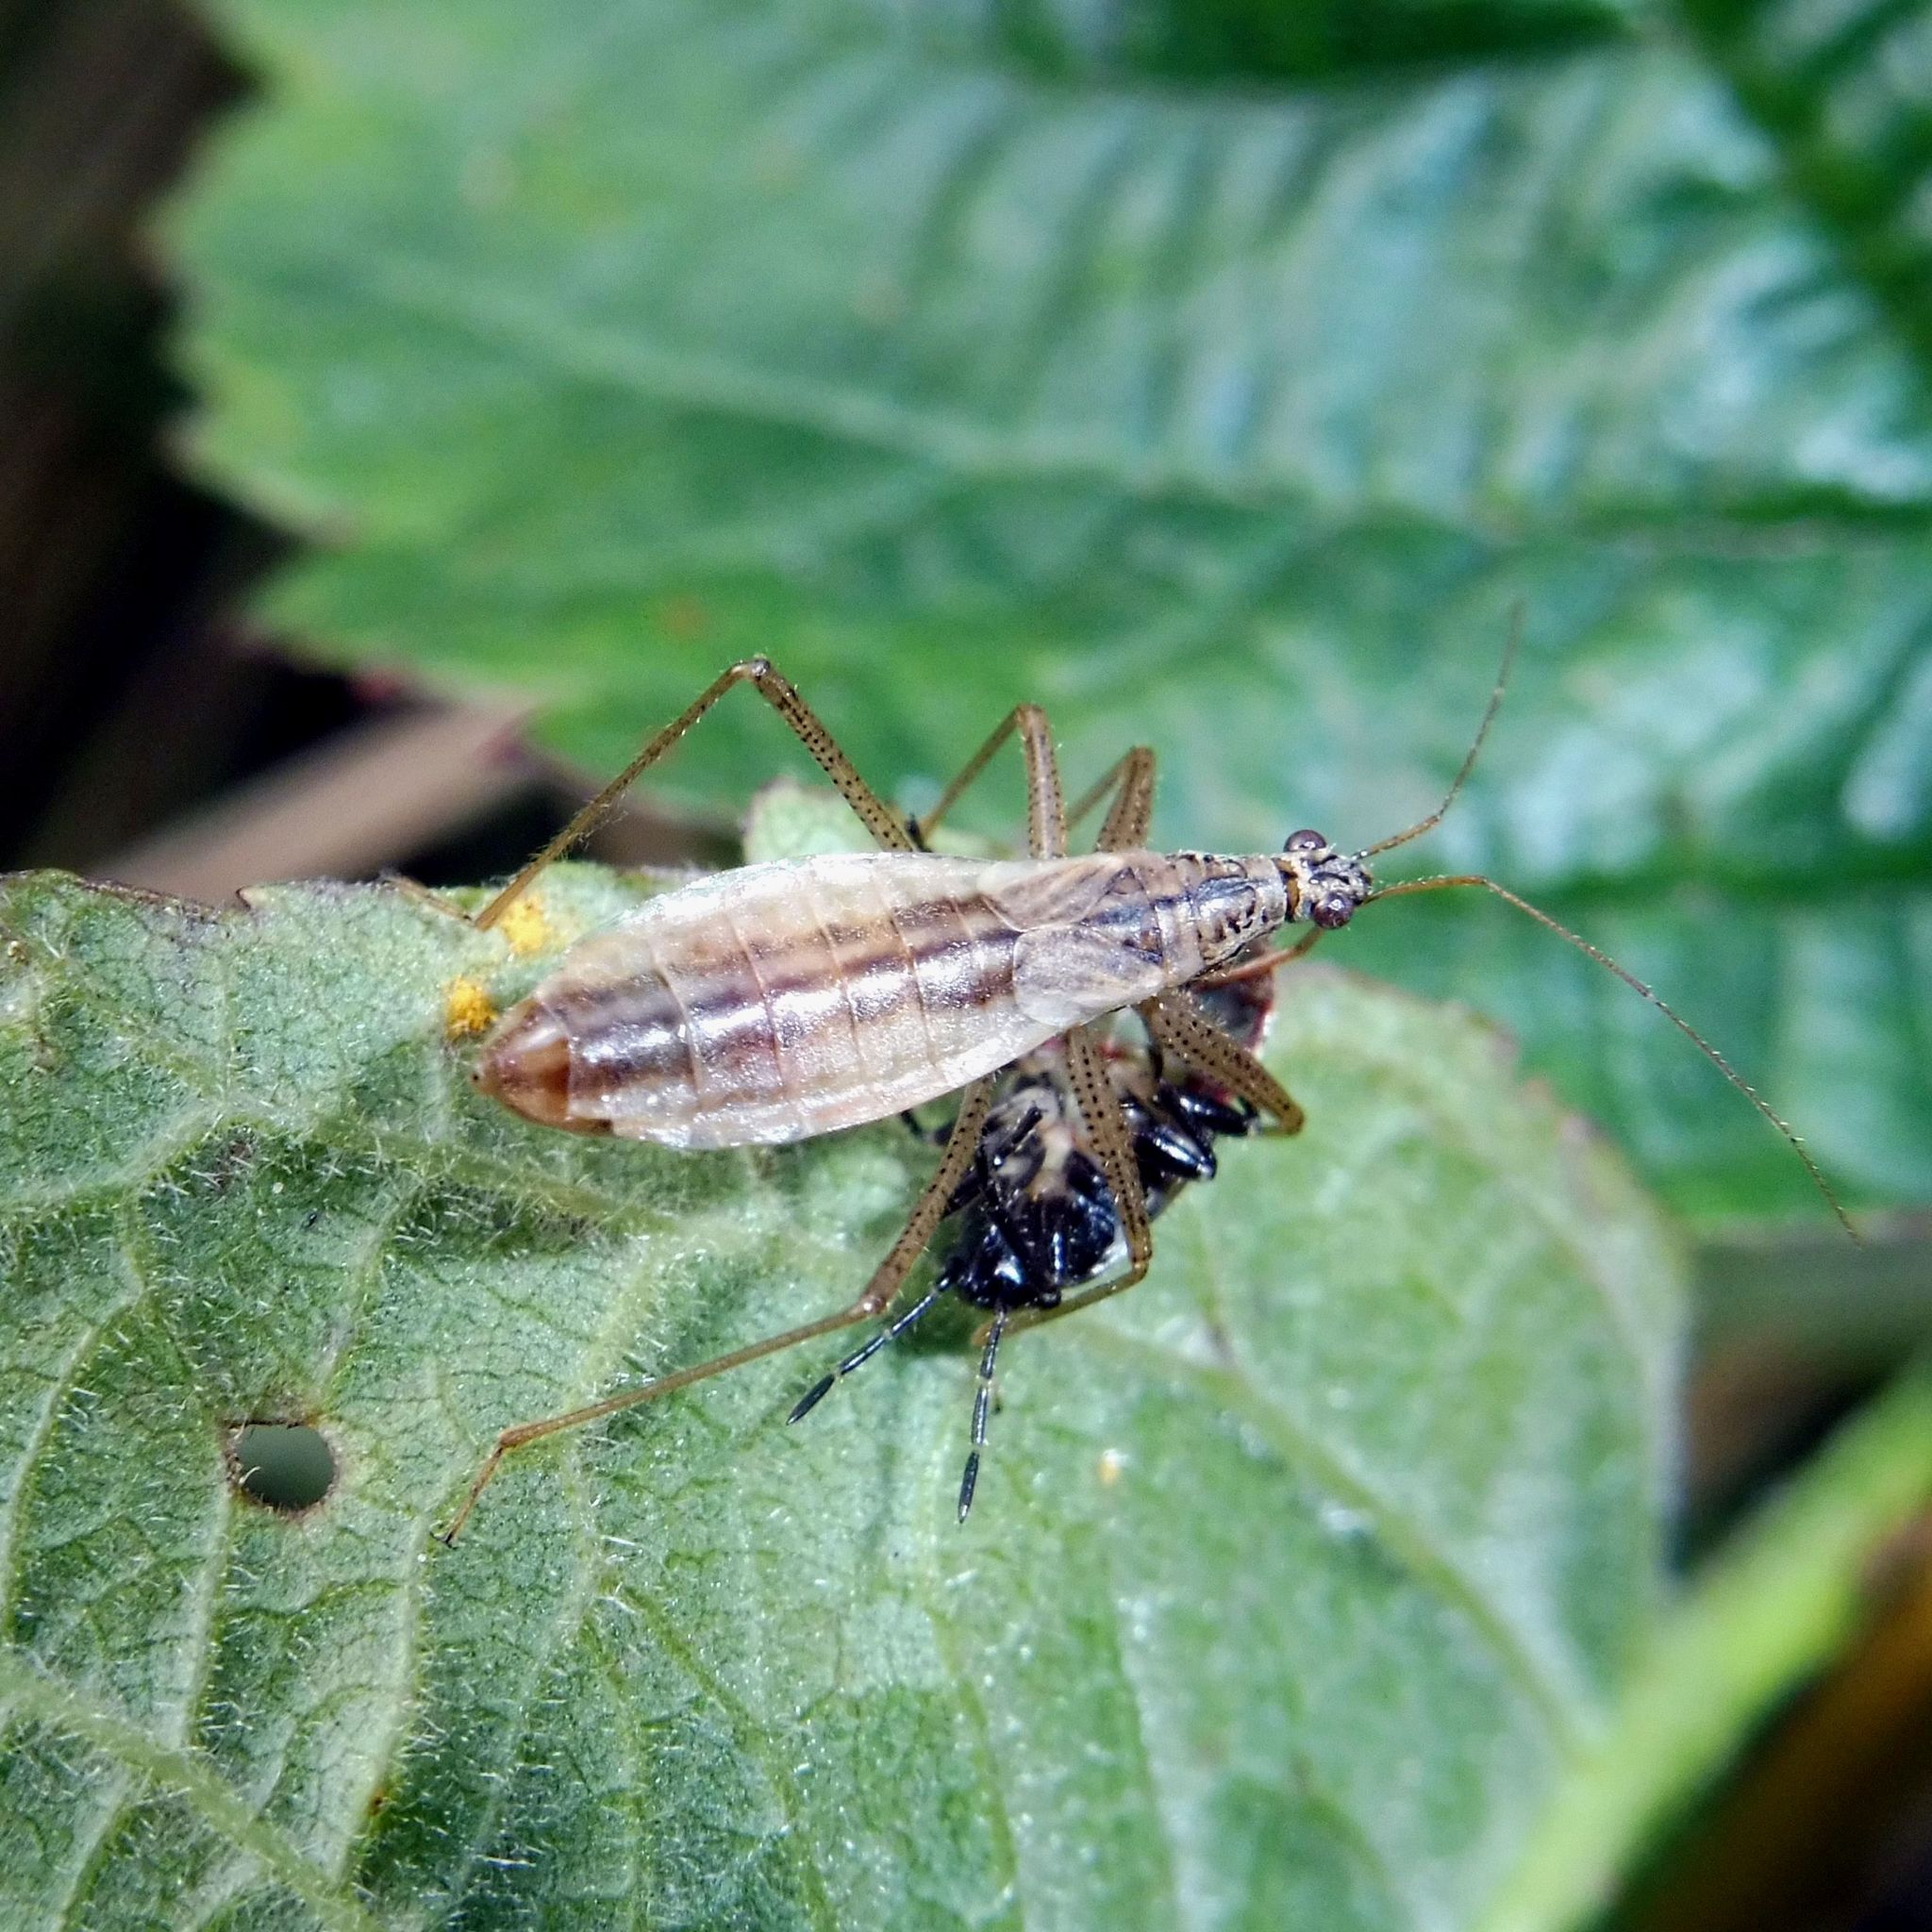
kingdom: Animalia
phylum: Arthropoda
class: Insecta
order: Hemiptera
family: Nabidae
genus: Nabis
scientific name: Nabis limbatus
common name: Marsh damselbug
